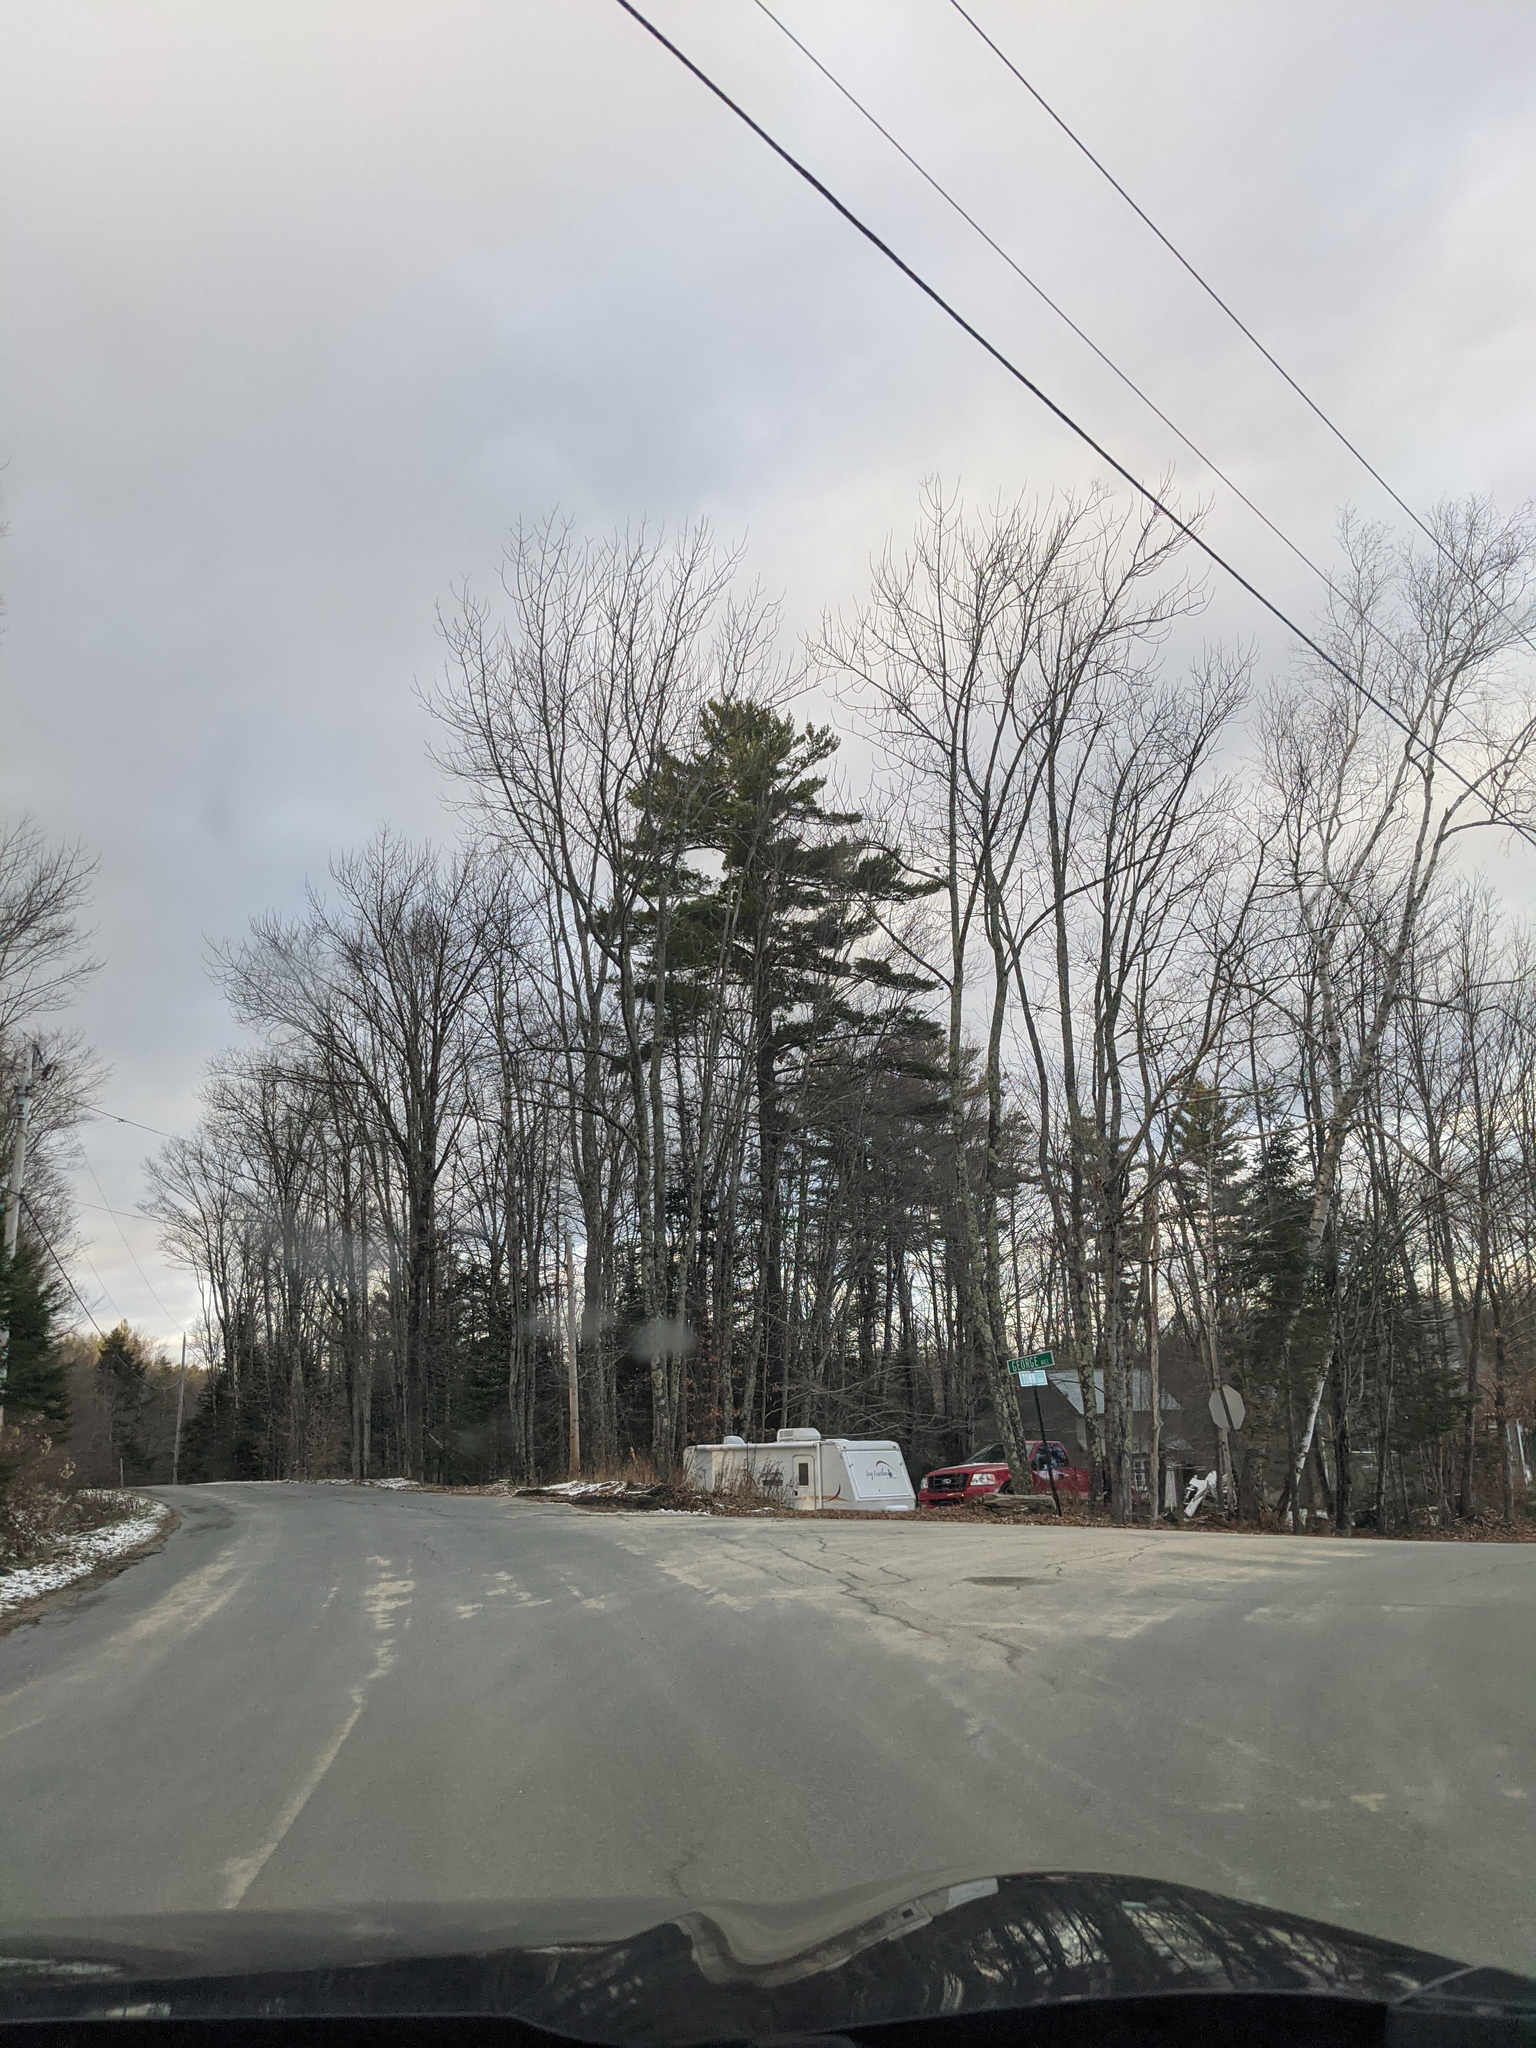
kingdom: Plantae
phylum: Tracheophyta
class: Pinopsida
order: Pinales
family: Pinaceae
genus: Pinus
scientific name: Pinus strobus
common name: Weymouth pine
